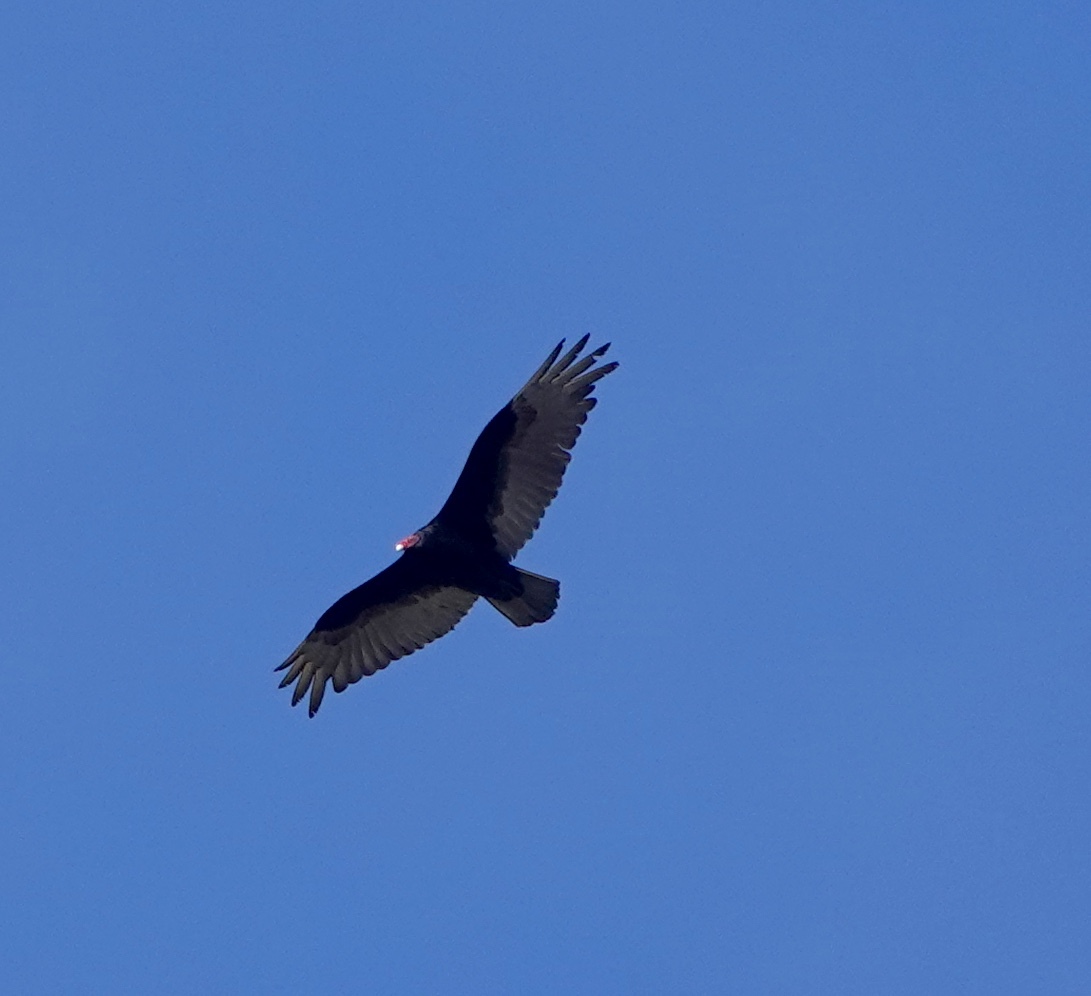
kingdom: Animalia
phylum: Chordata
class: Aves
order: Accipitriformes
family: Cathartidae
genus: Cathartes
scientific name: Cathartes aura
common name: Turkey vulture
